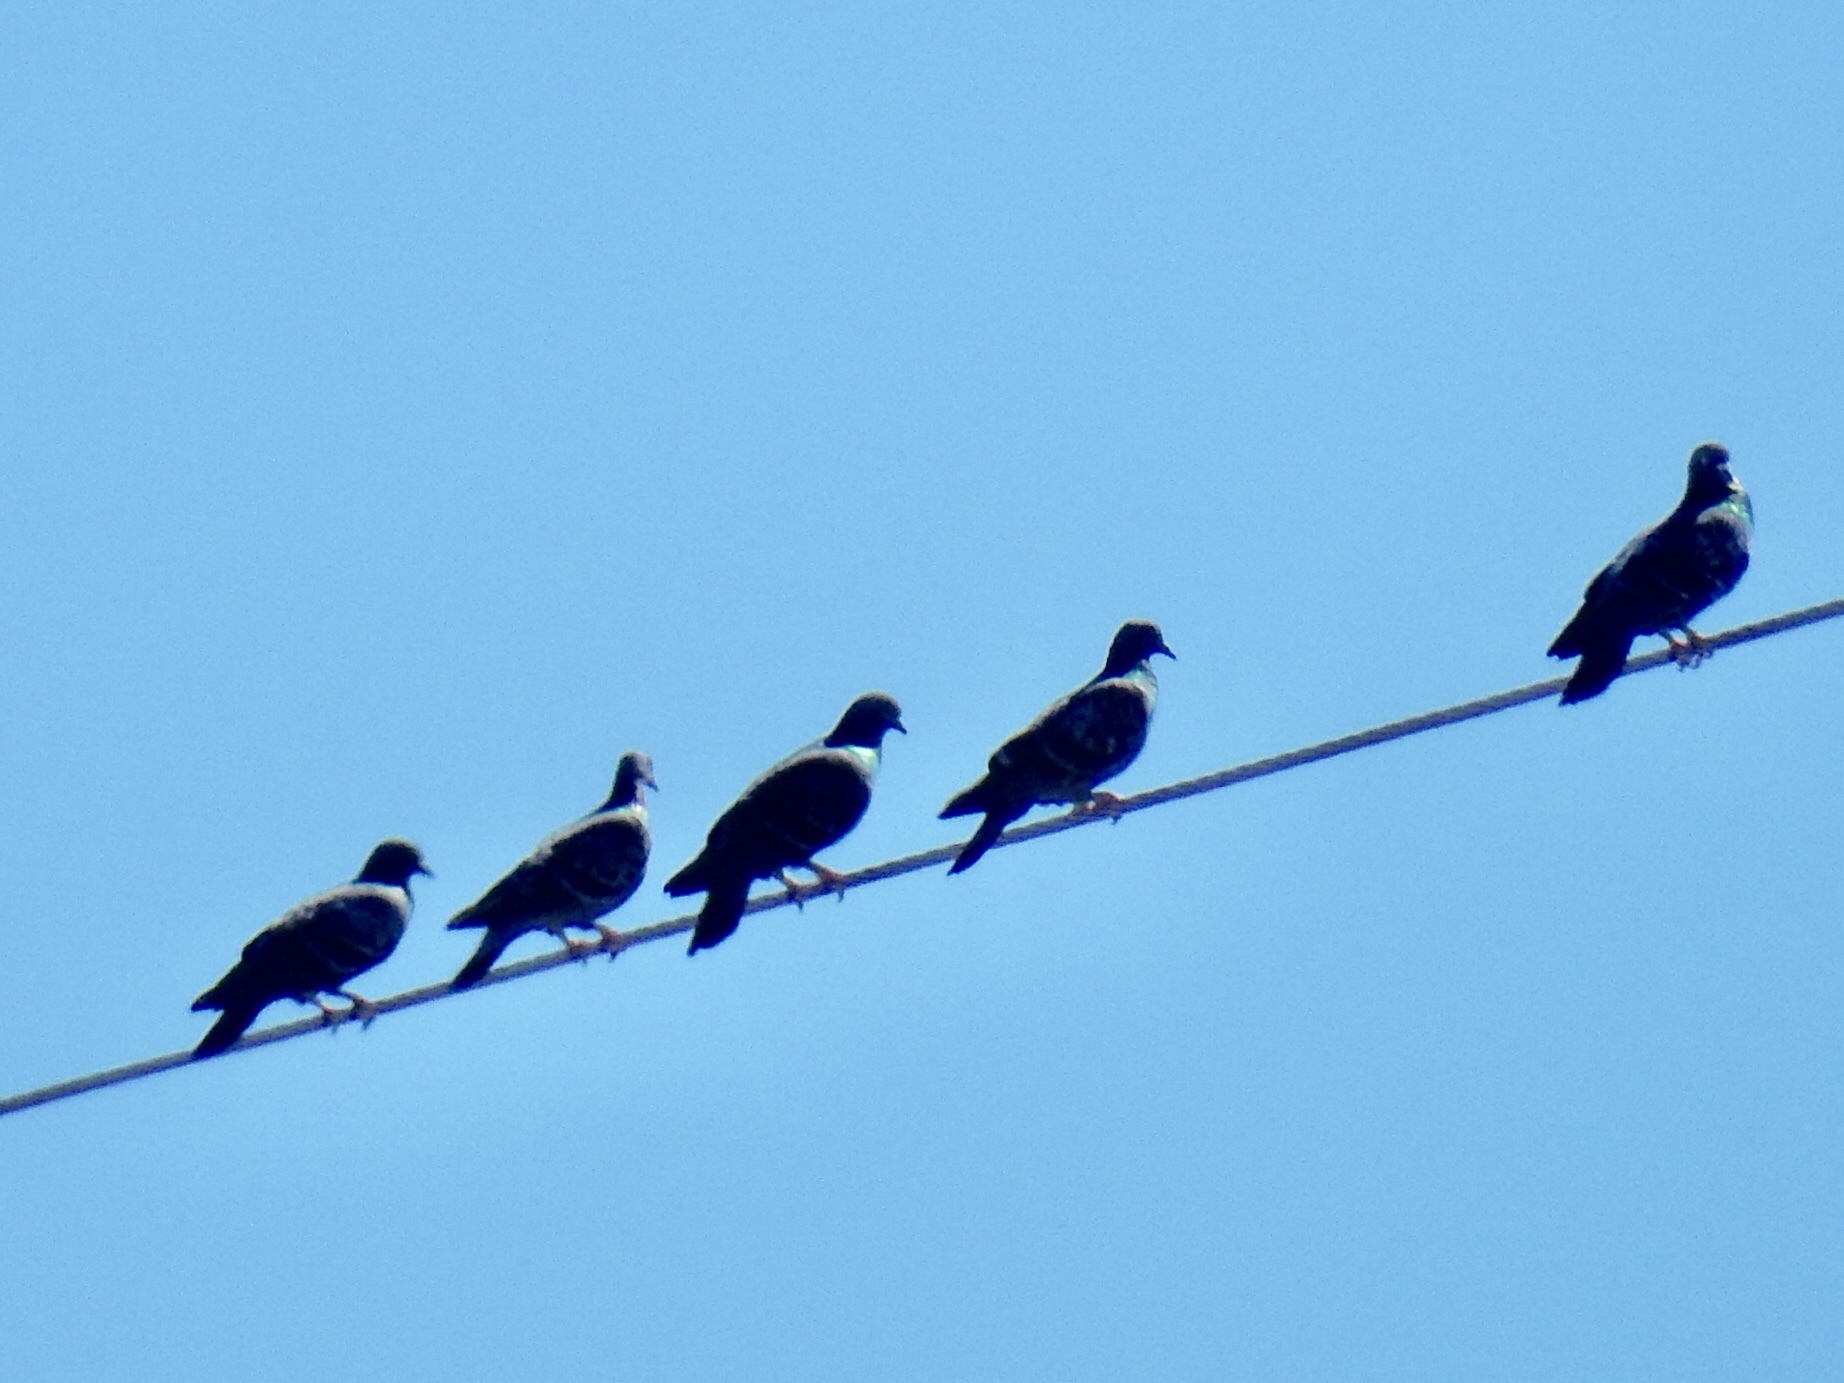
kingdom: Animalia
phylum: Chordata
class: Aves
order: Columbiformes
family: Columbidae
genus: Columba
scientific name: Columba livia
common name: Rock pigeon
